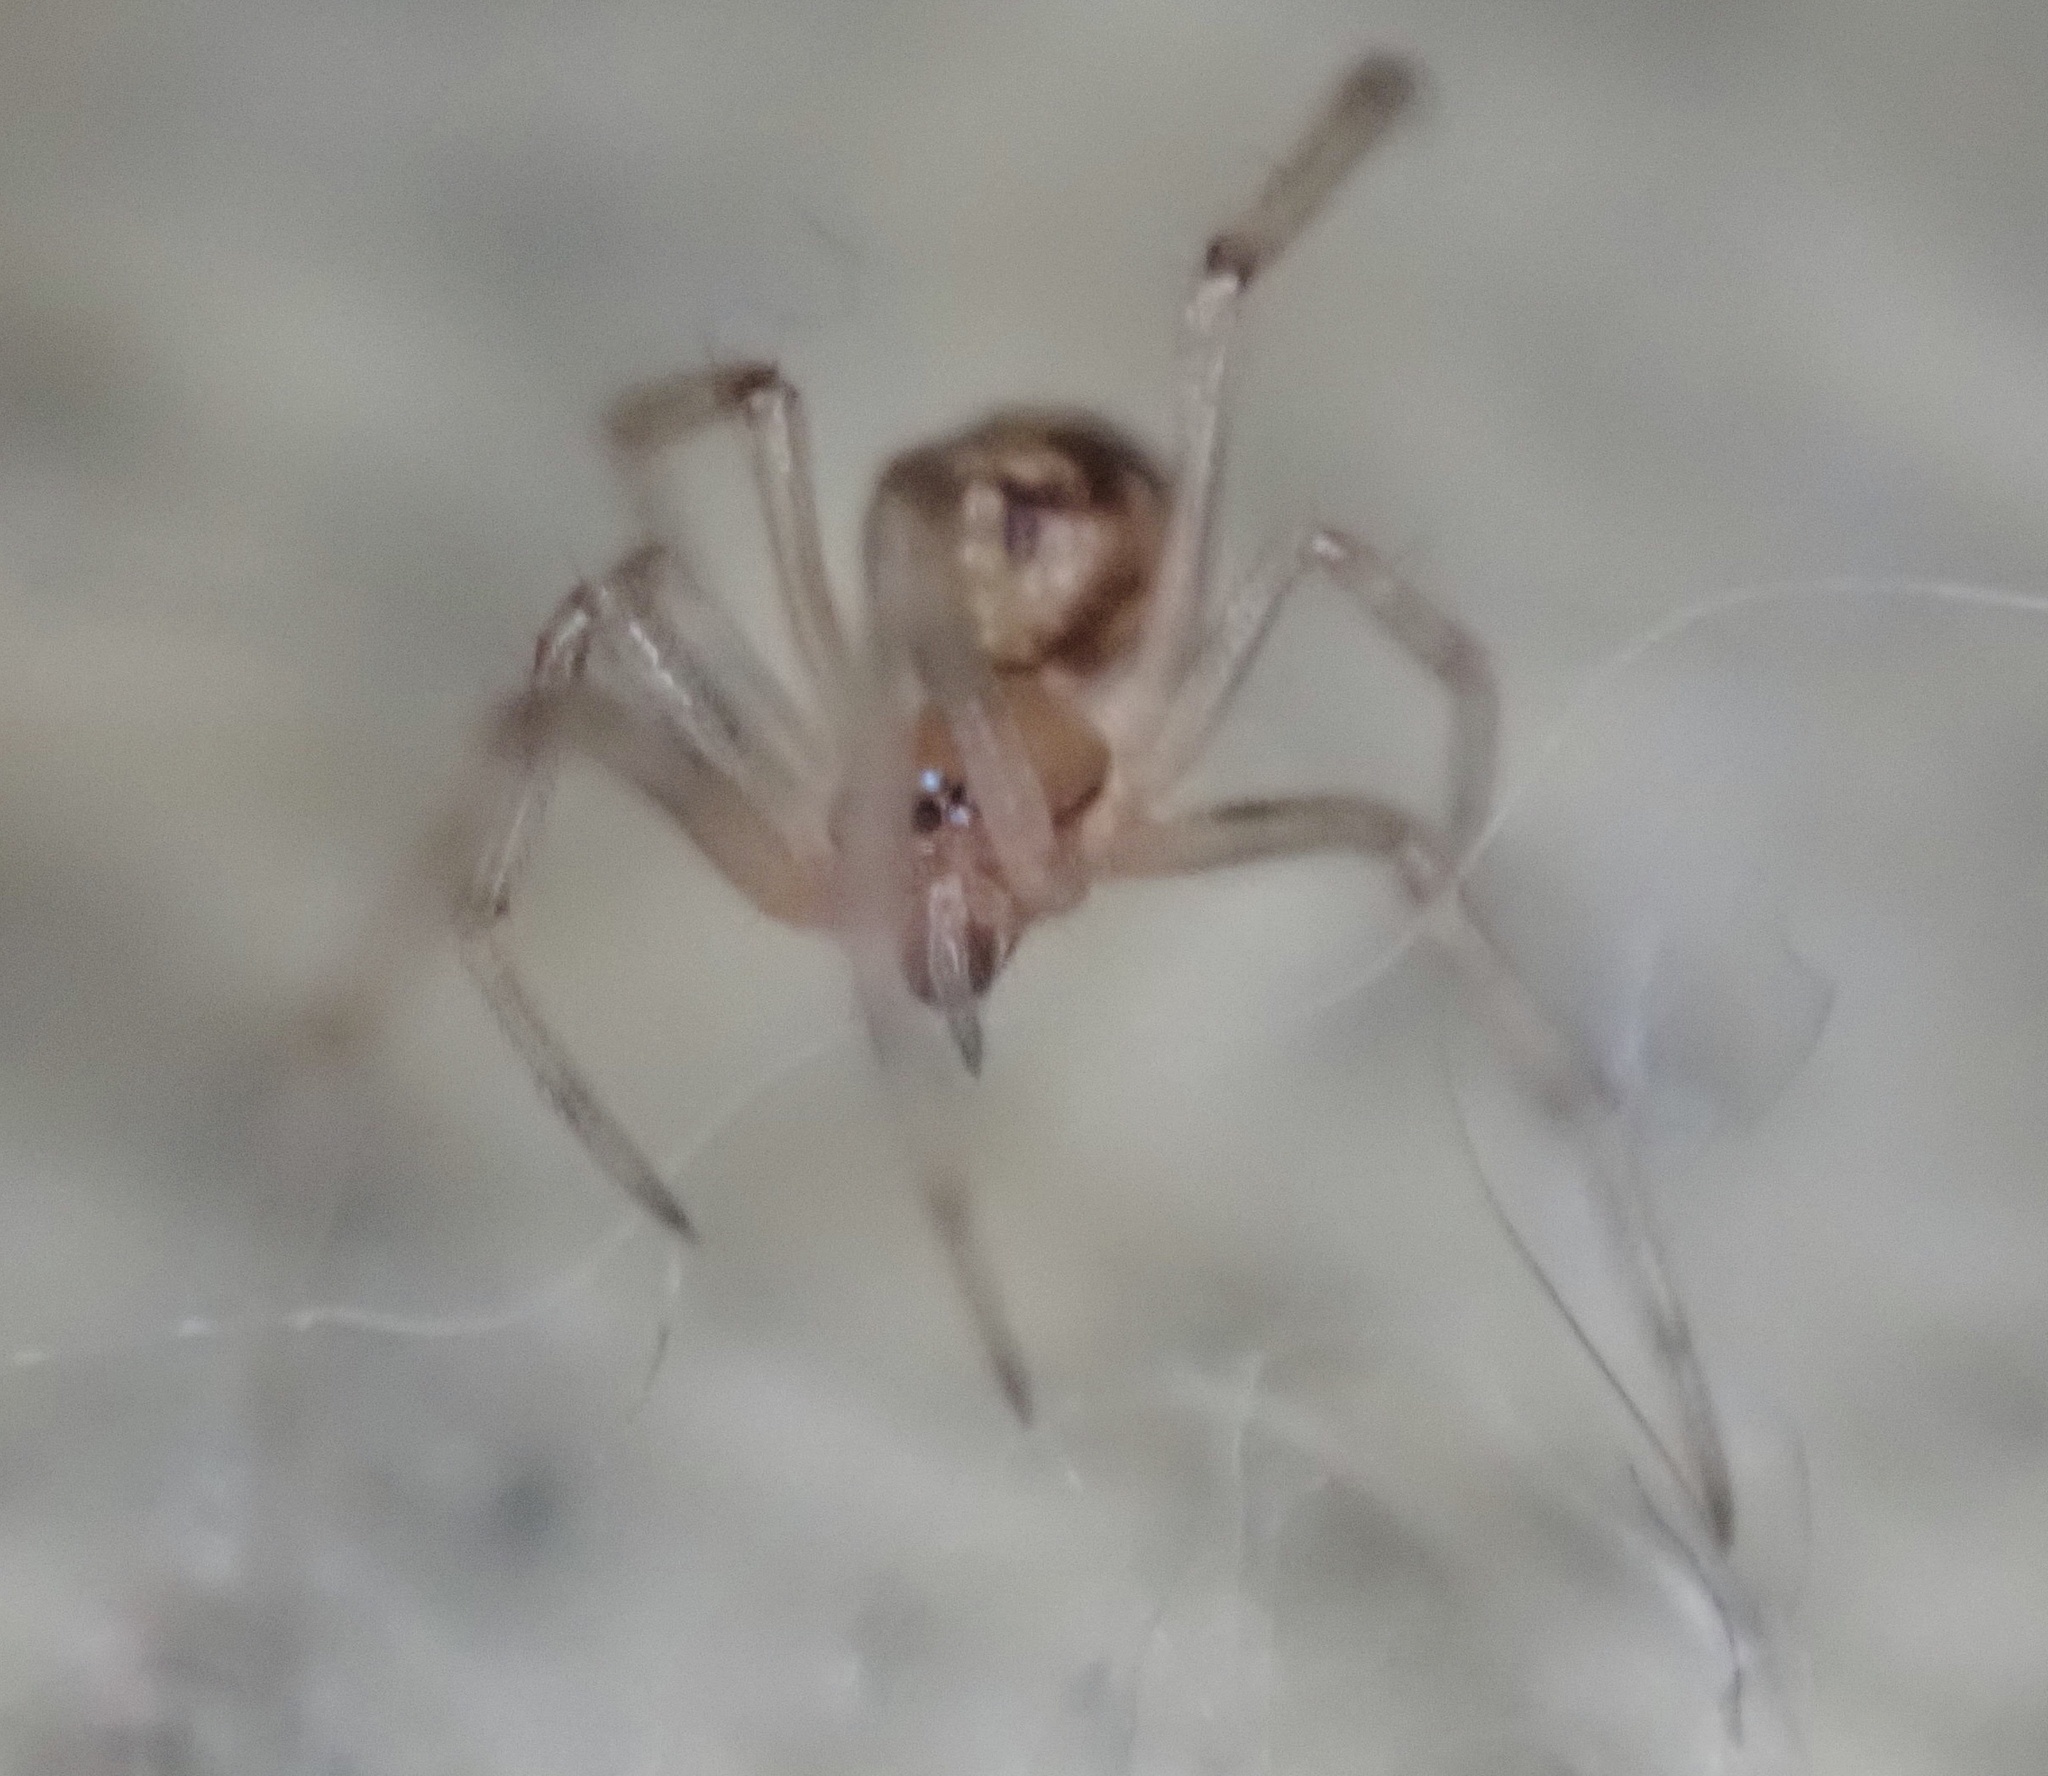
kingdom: Animalia
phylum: Arthropoda
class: Arachnida
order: Araneae
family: Theridiidae
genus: Steatoda
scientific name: Steatoda triangulosa
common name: Triangulate bud spider
